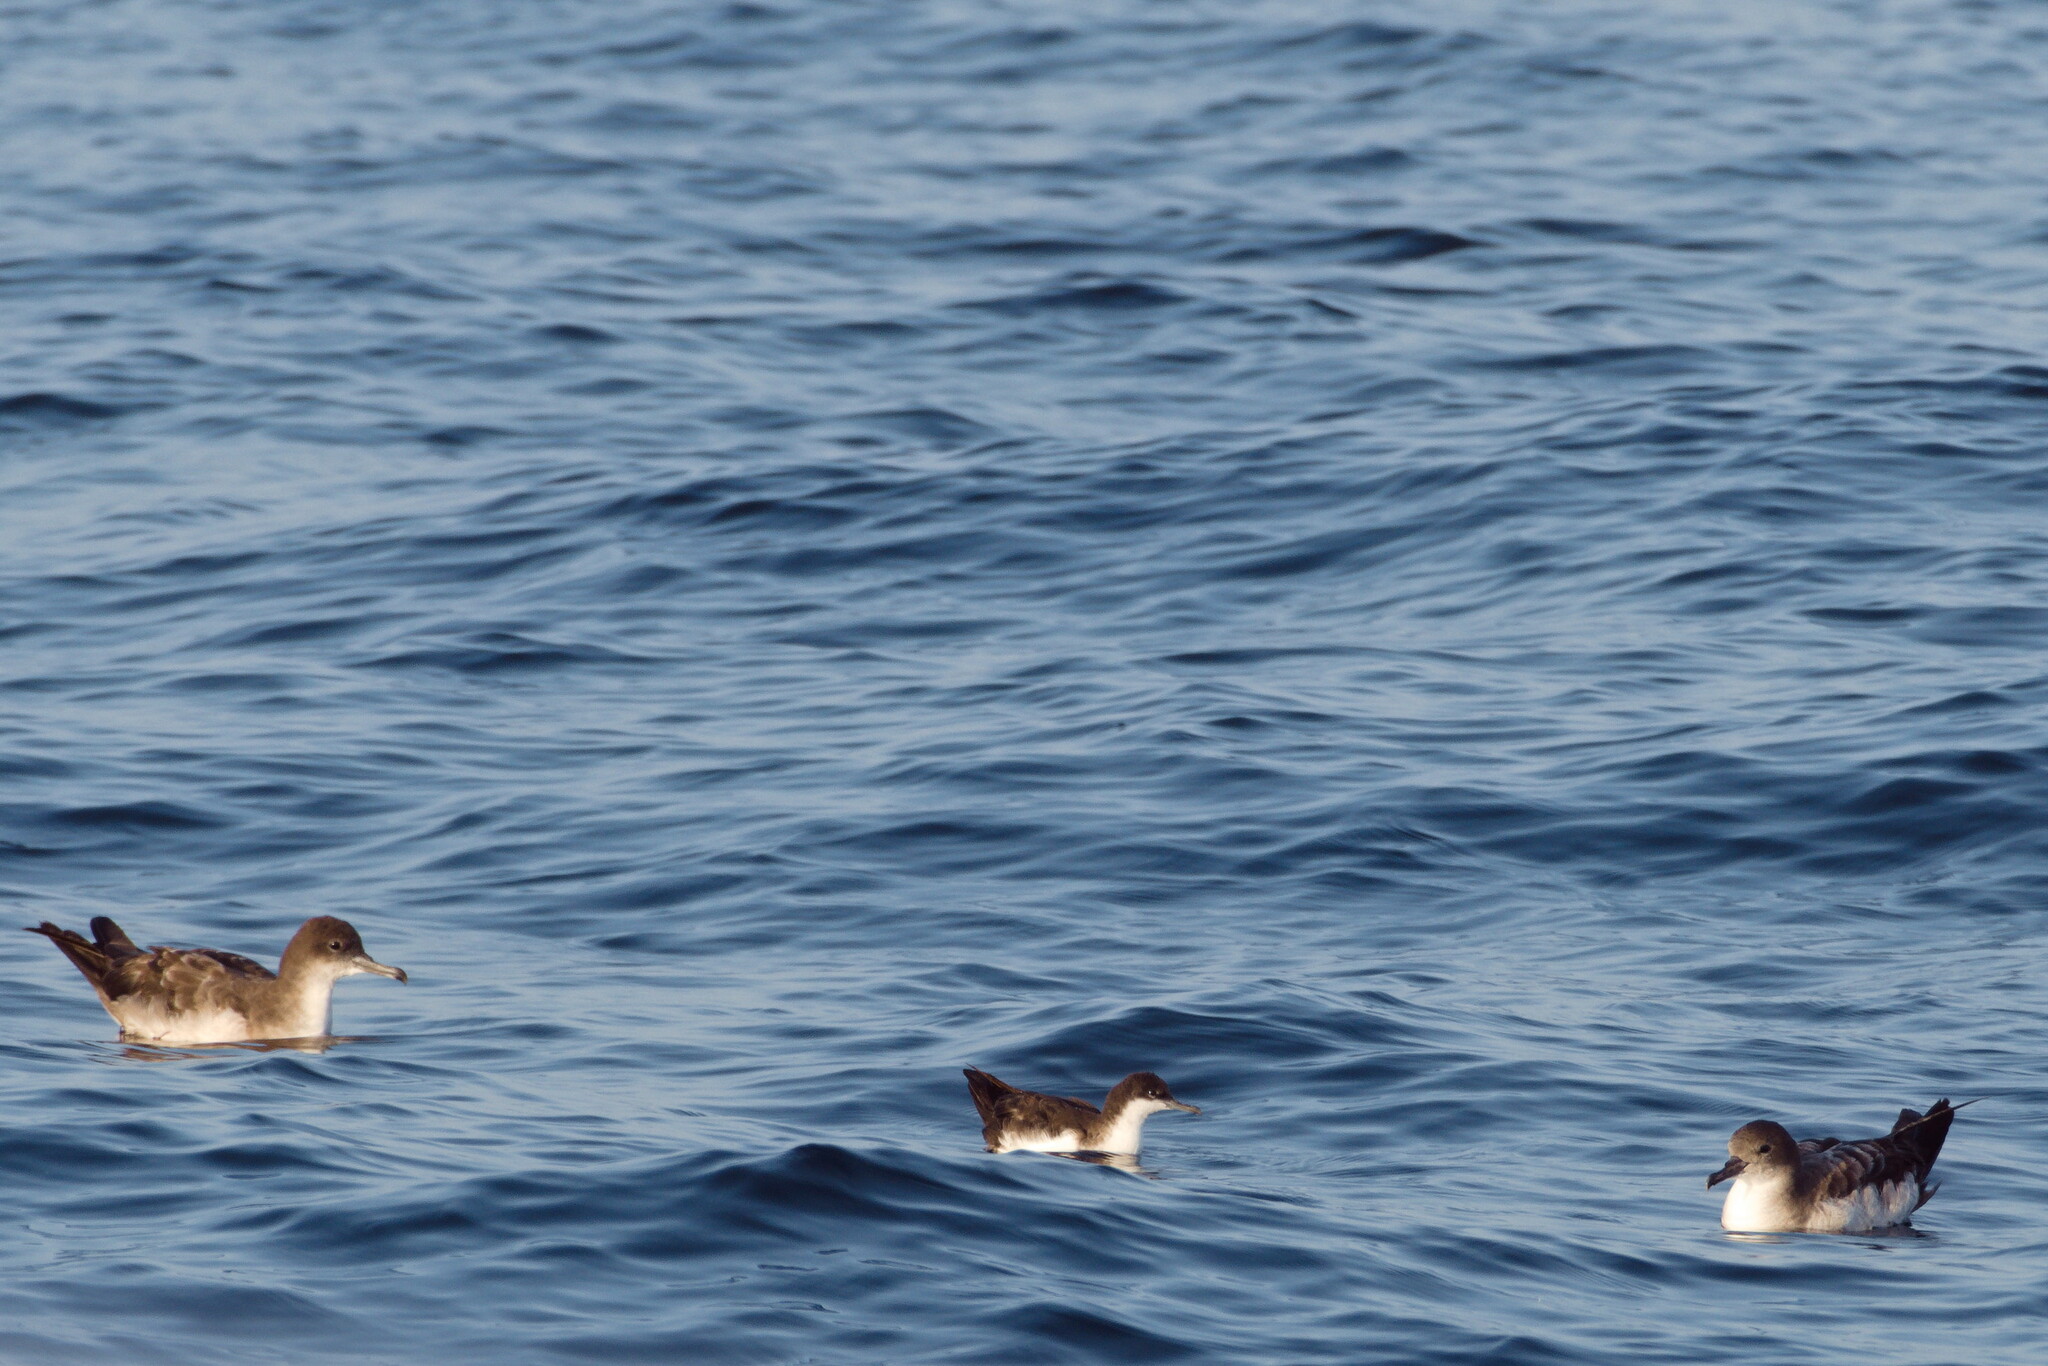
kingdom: Animalia
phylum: Chordata
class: Aves
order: Procellariiformes
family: Procellariidae
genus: Puffinus
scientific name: Puffinus subalaris
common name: Galapagos shearwater
